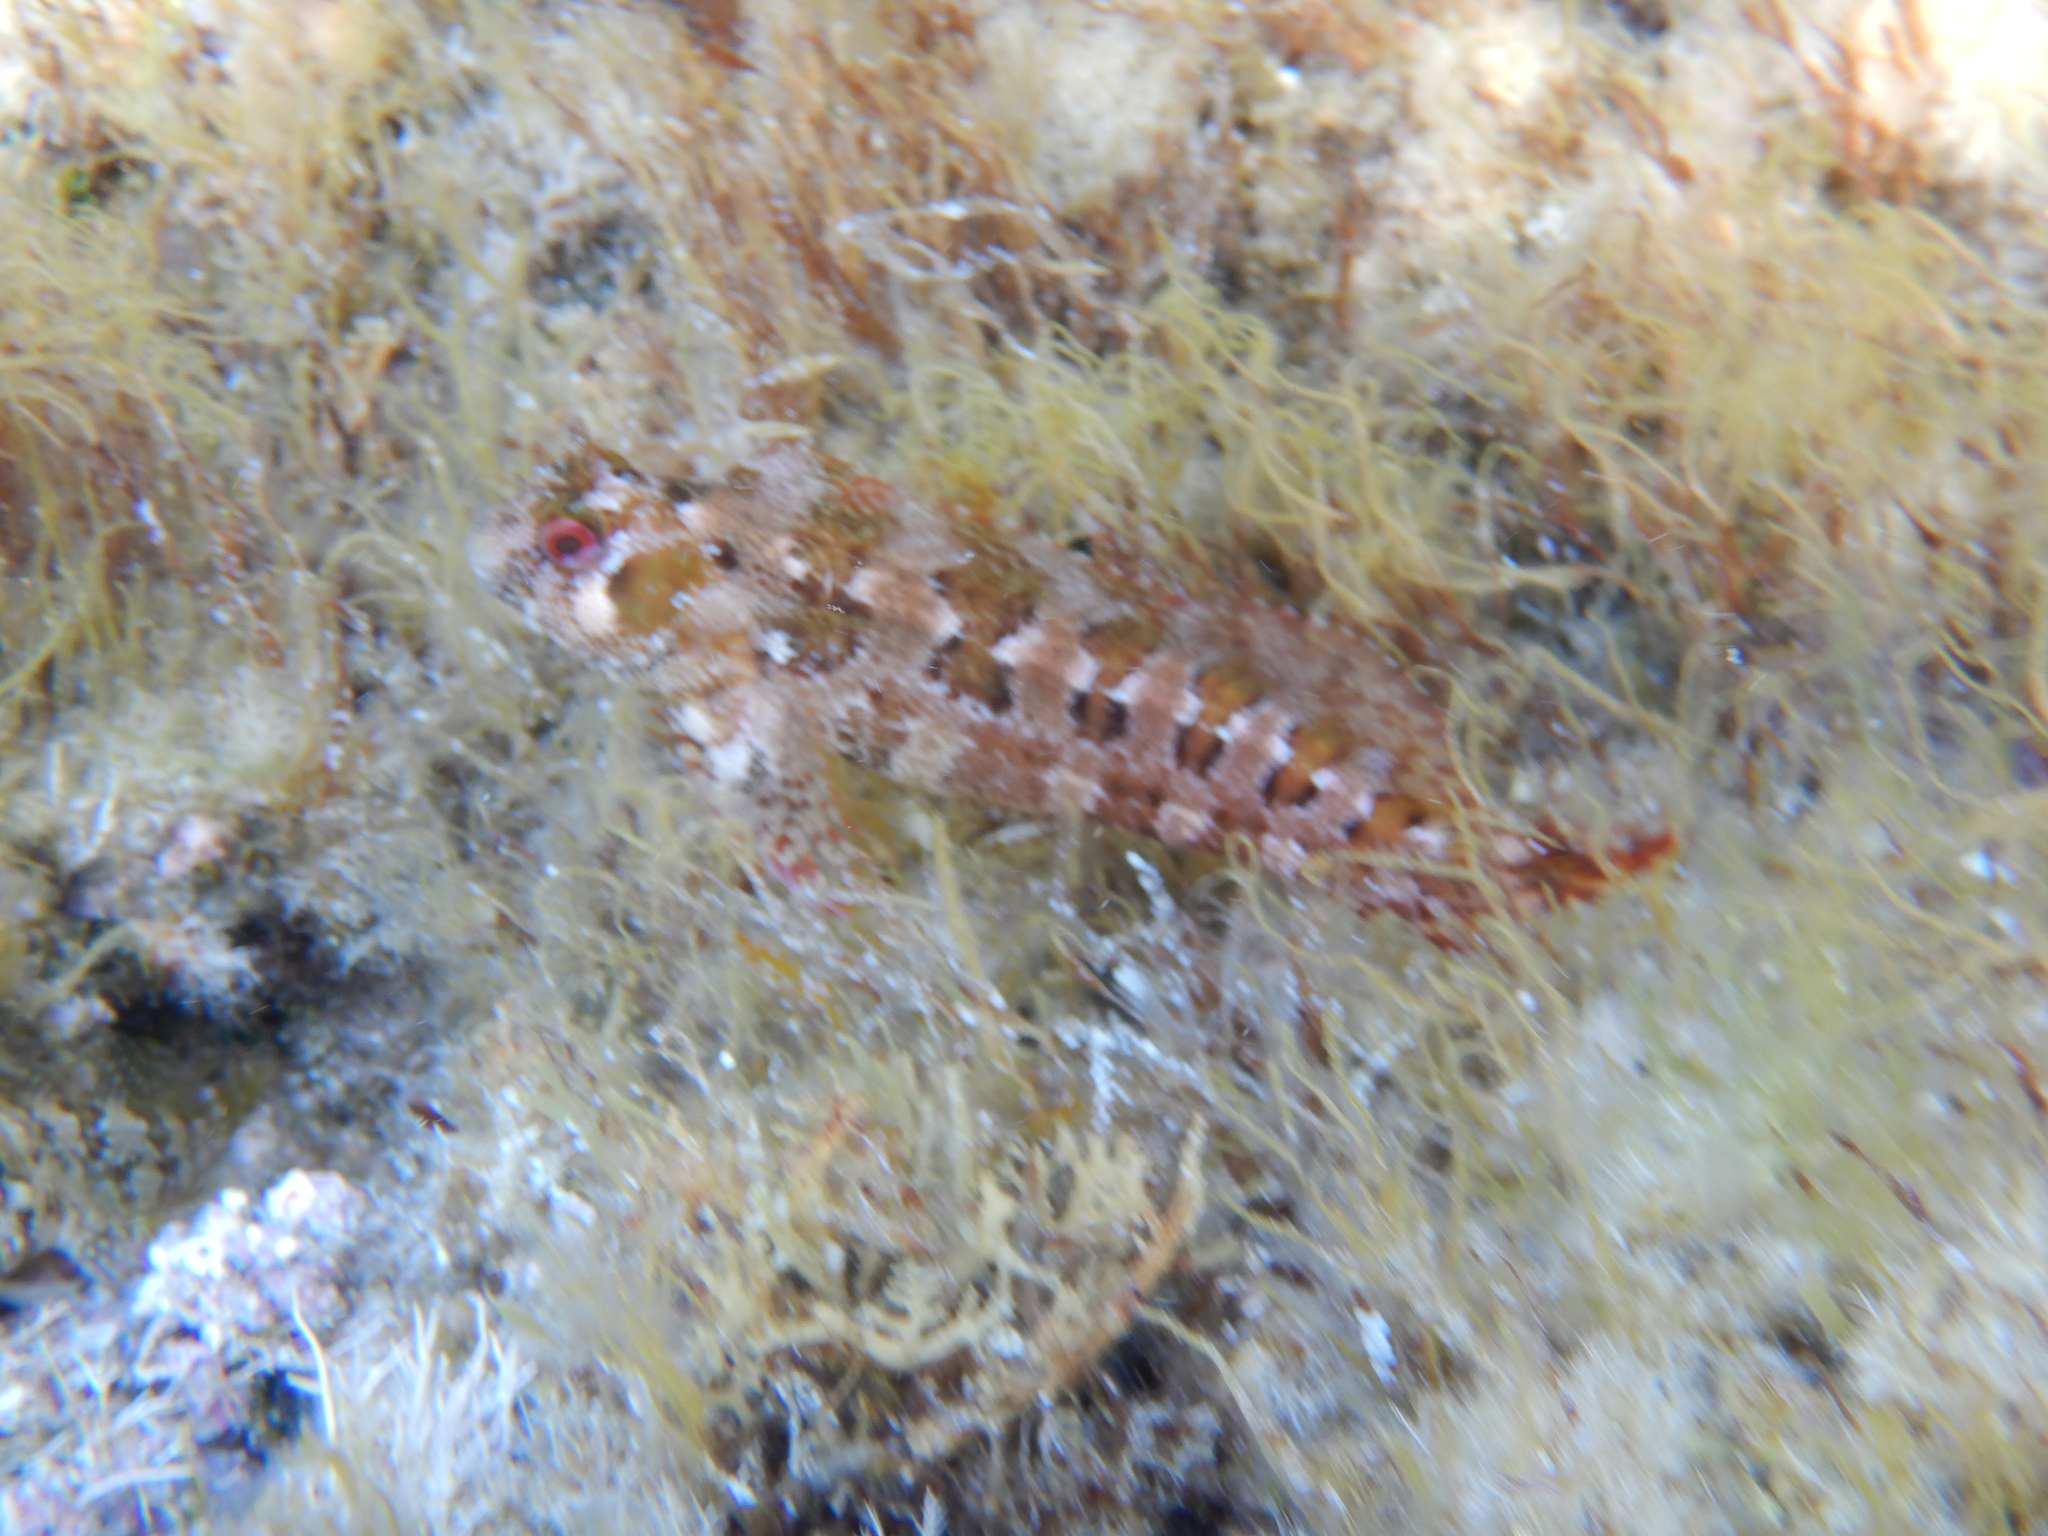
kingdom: Animalia
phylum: Chordata
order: Perciformes
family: Blenniidae
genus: Parablennius
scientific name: Parablennius gattorugine
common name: Tompot blenny
